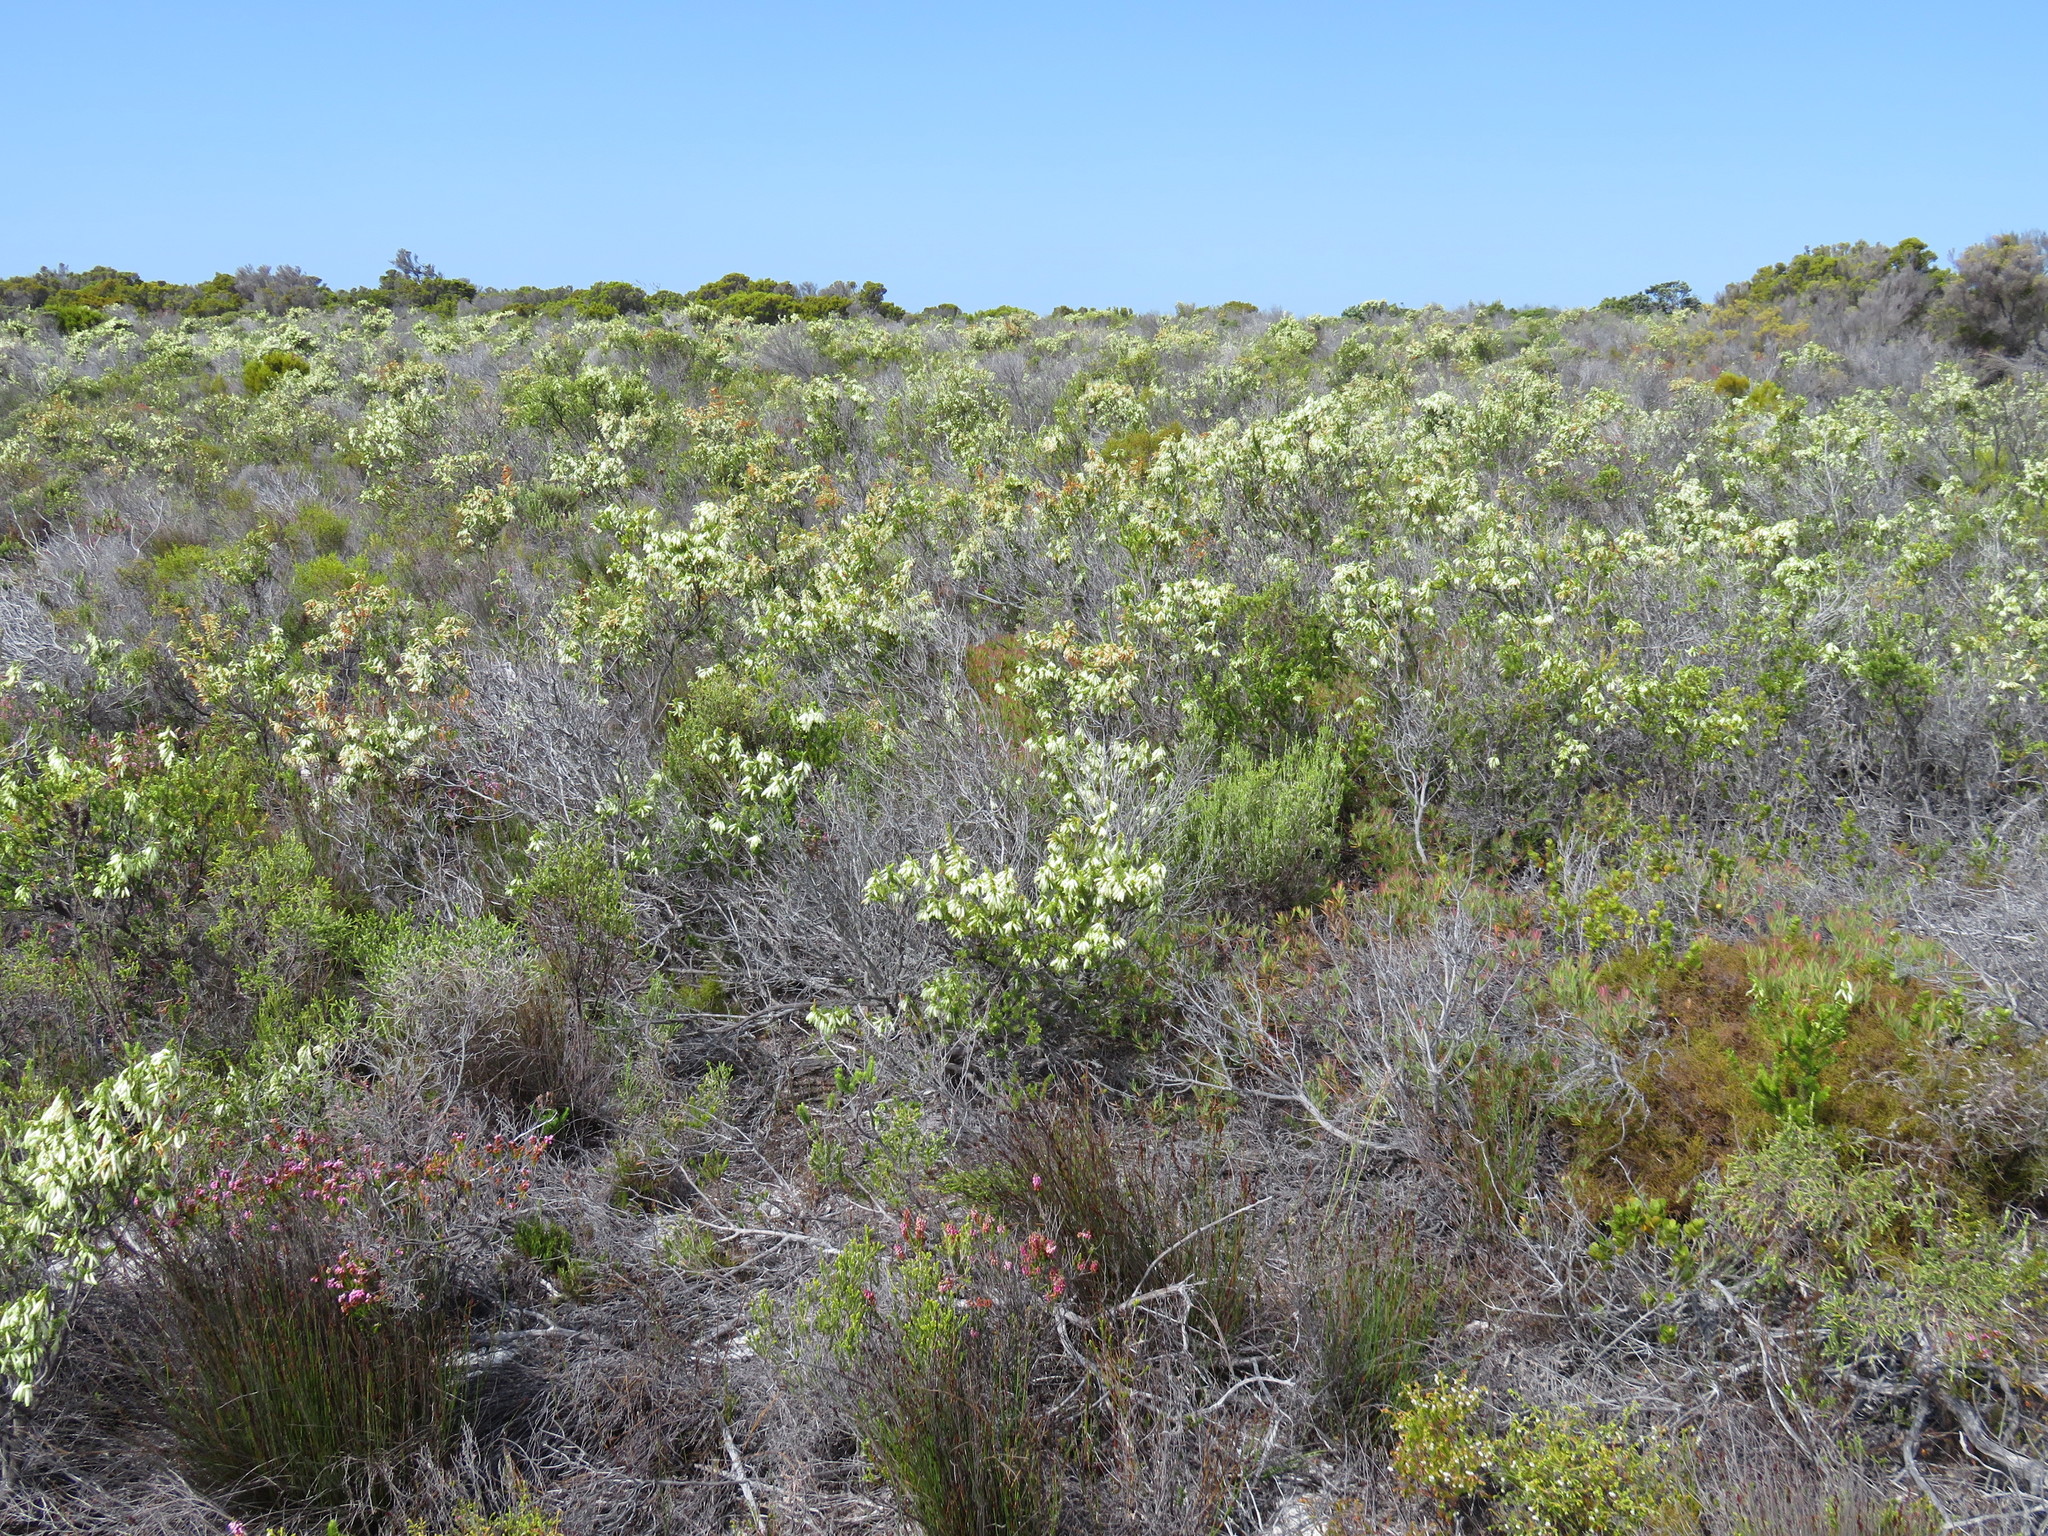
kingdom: Plantae
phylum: Tracheophyta
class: Magnoliopsida
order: Ericales
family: Ericaceae
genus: Erica
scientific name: Erica mammosa
